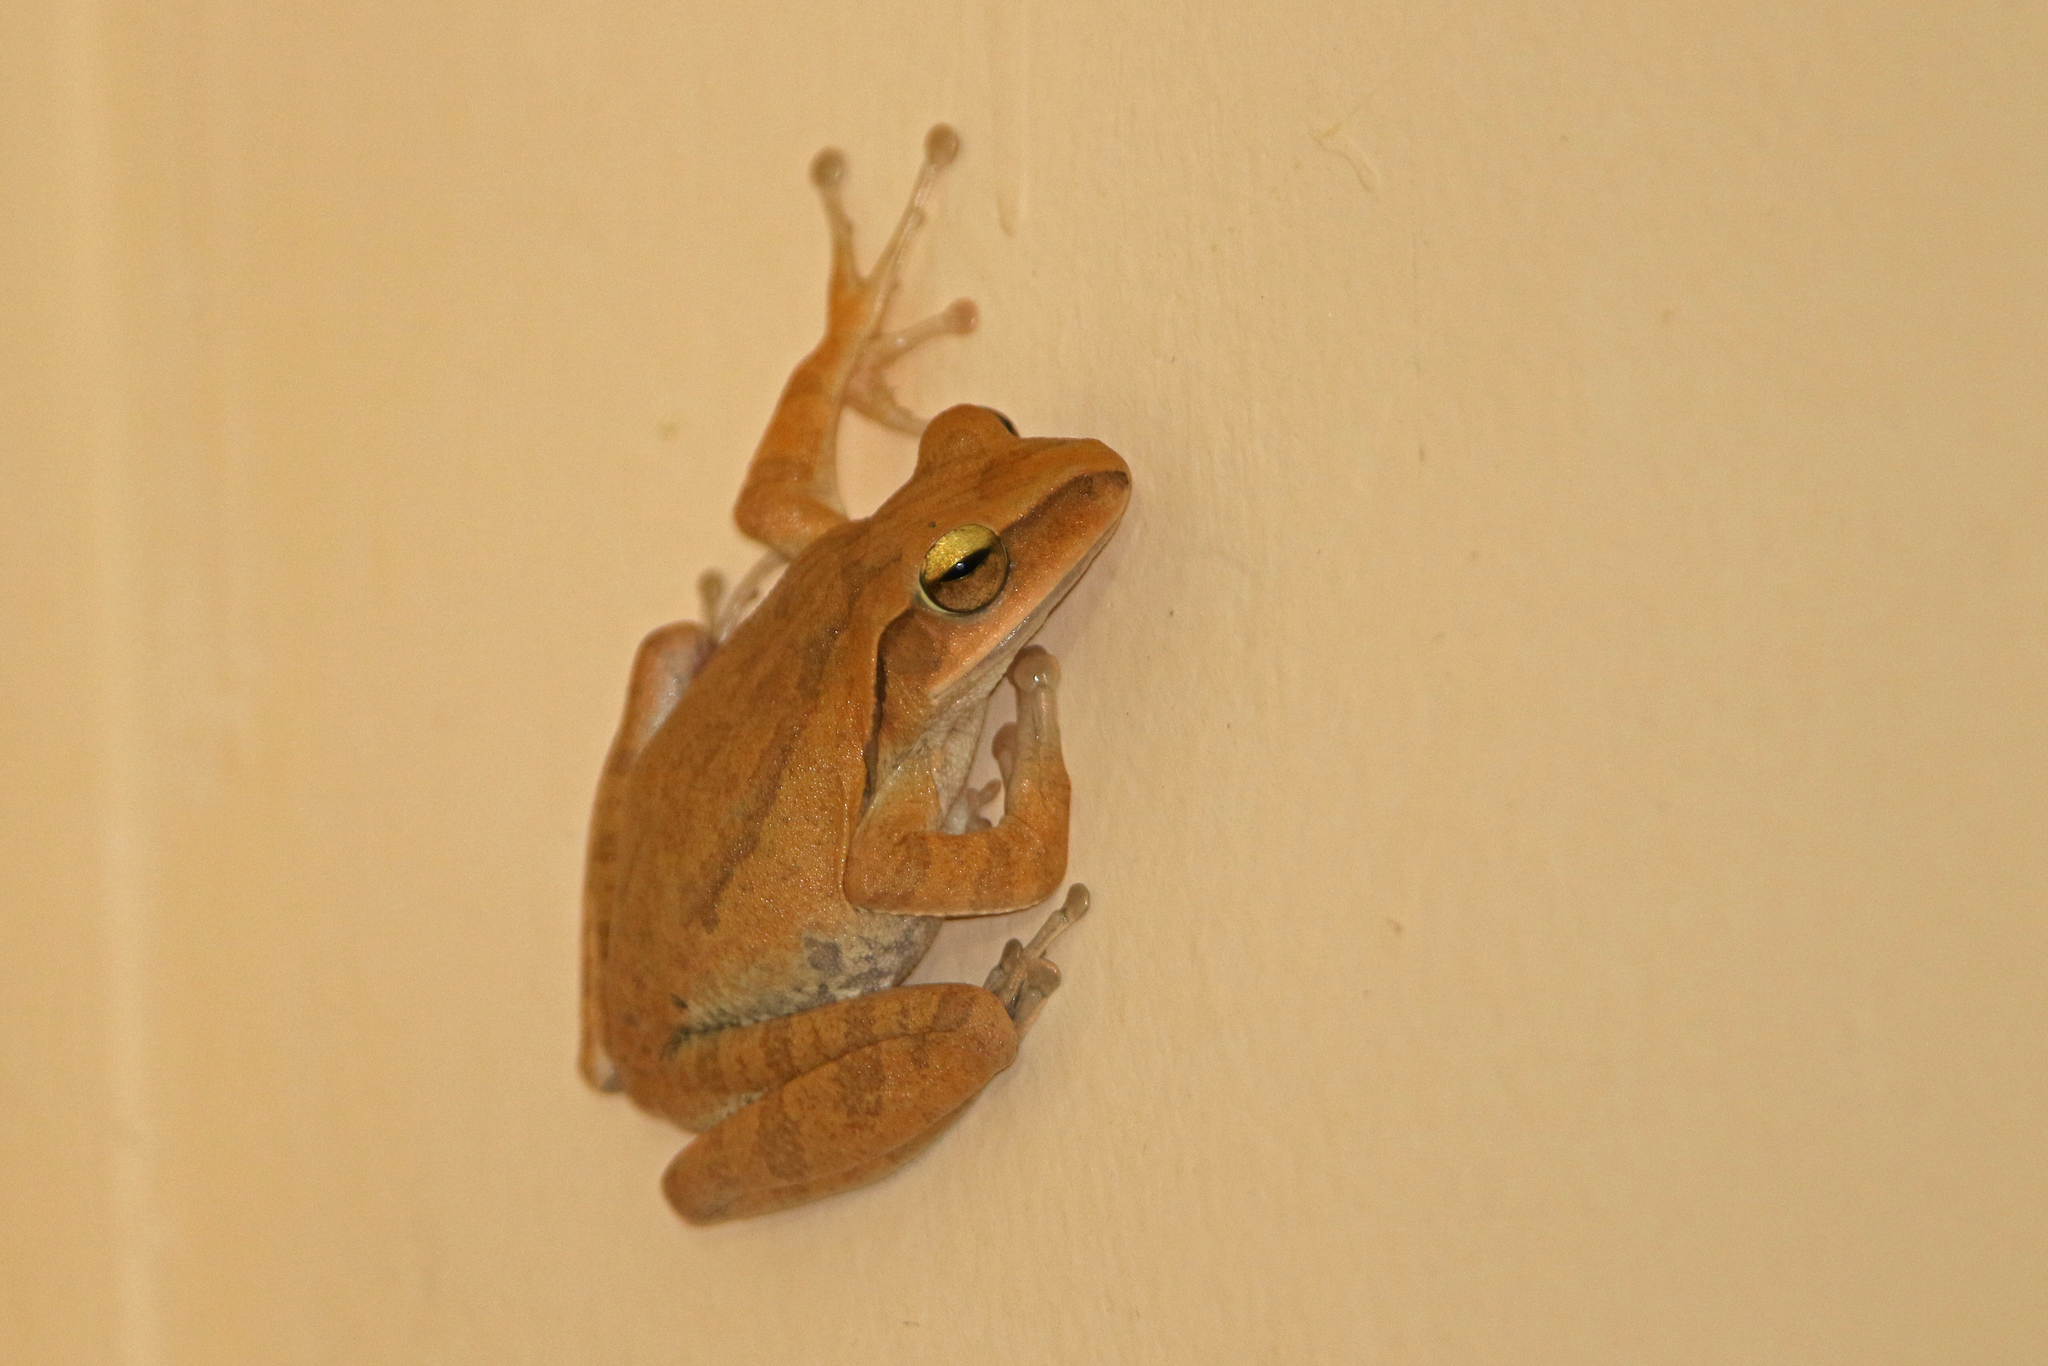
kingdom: Animalia
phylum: Chordata
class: Amphibia
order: Anura
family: Rhacophoridae
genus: Polypedates
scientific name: Polypedates megacephalus
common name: Hong kong whipping frog
